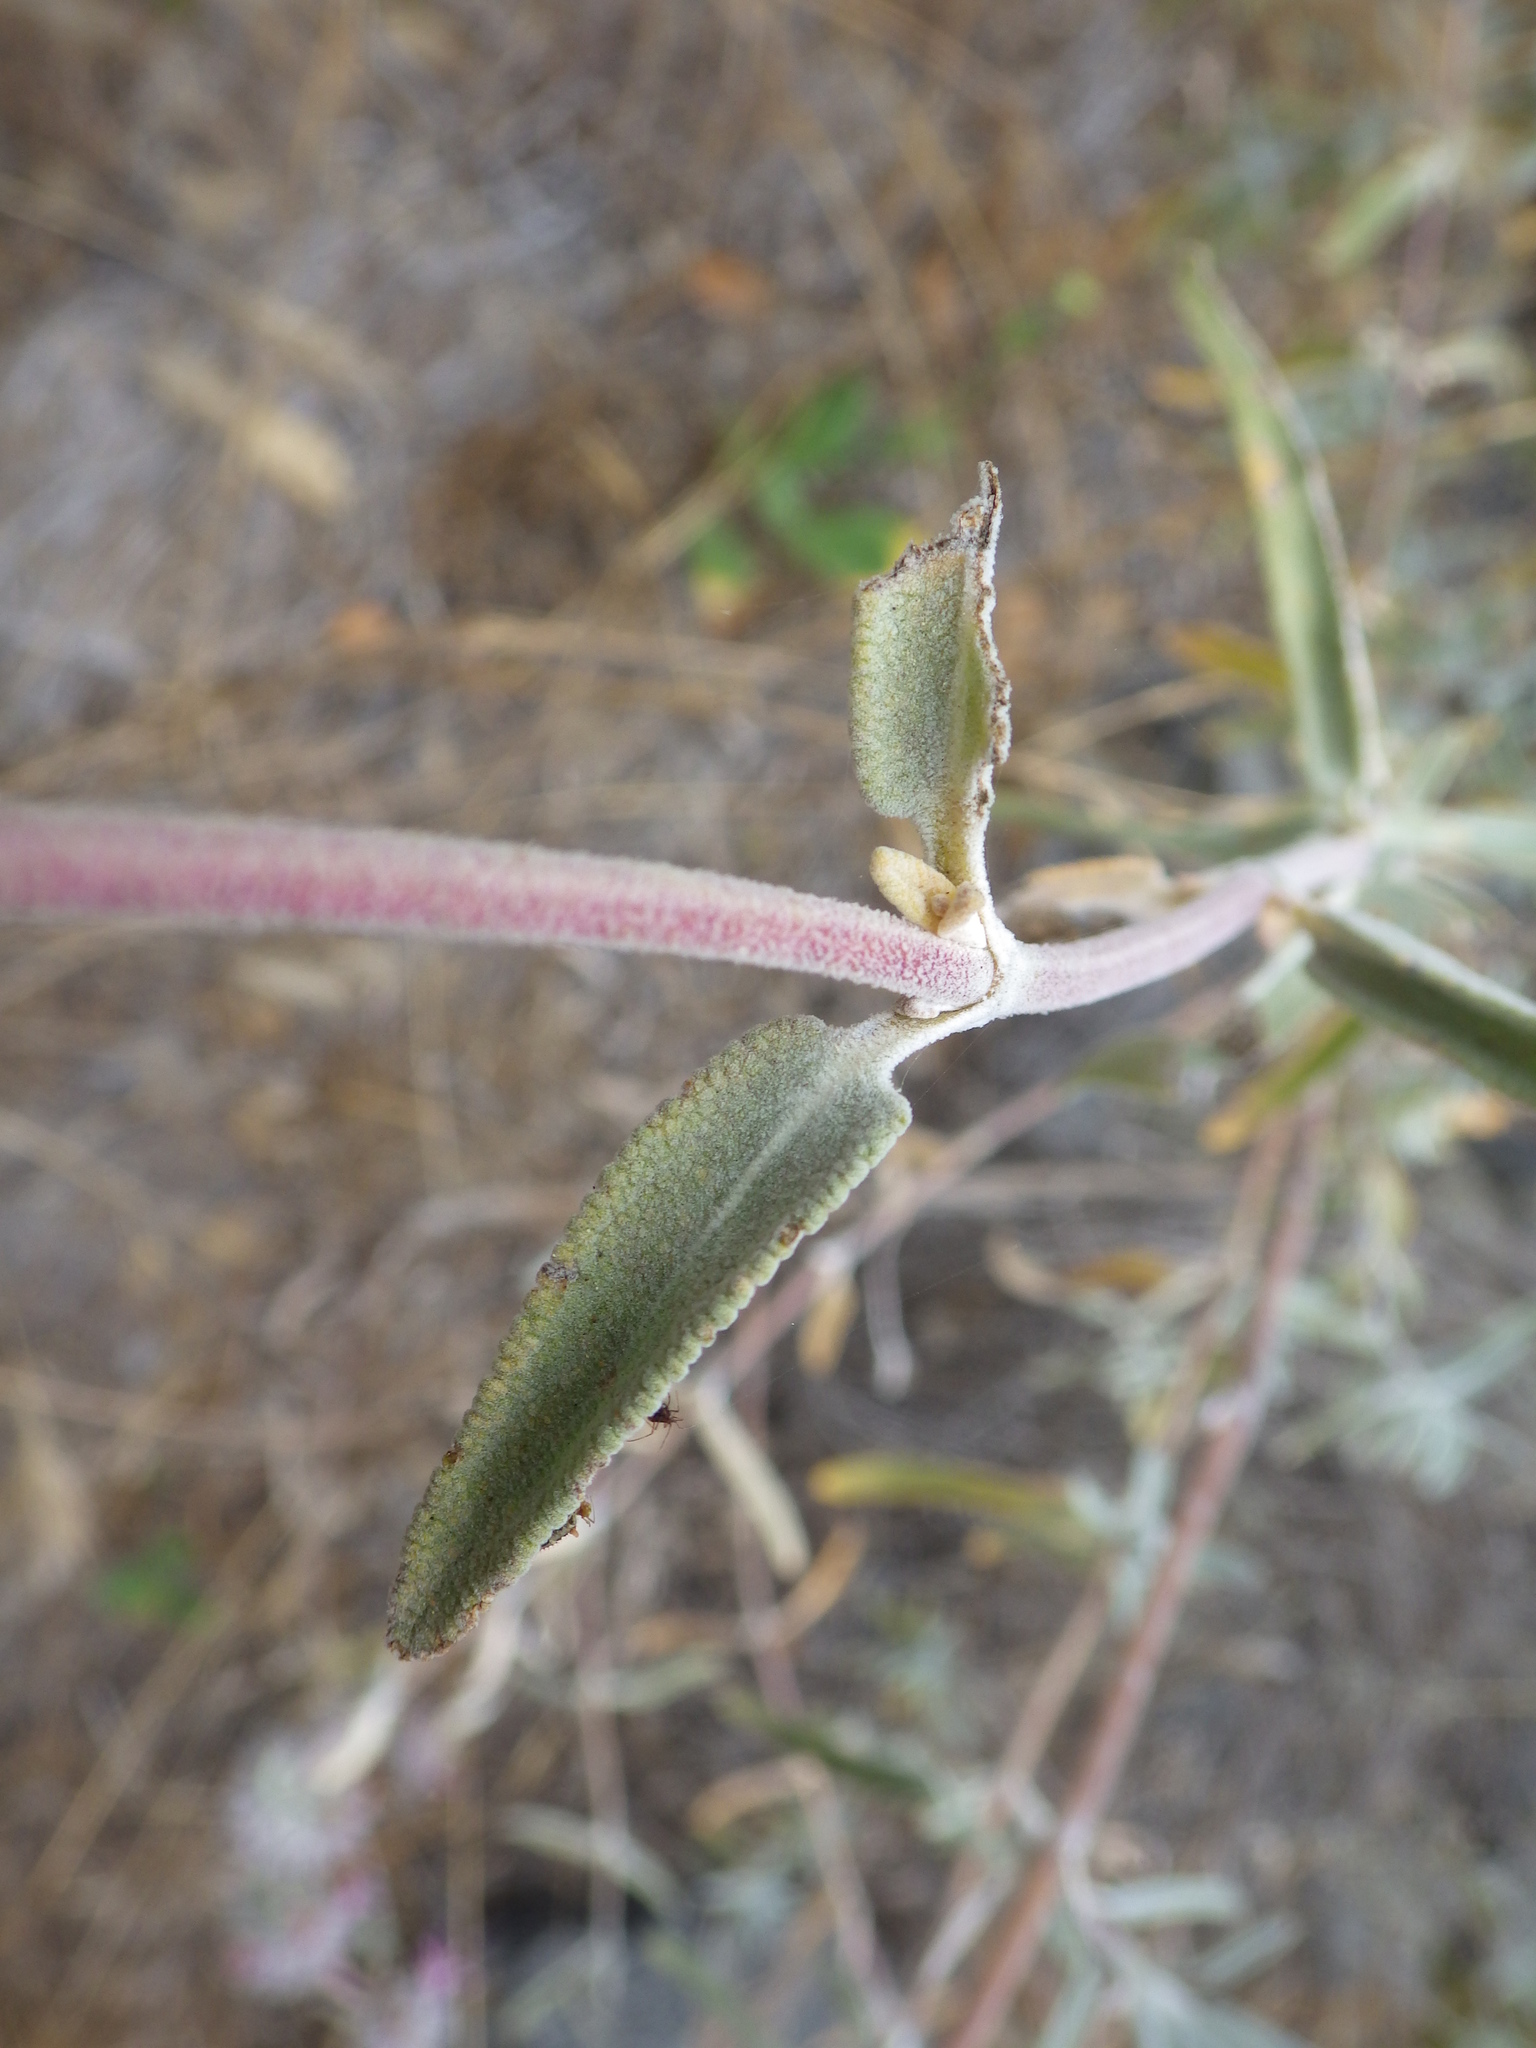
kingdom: Plantae
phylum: Tracheophyta
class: Magnoliopsida
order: Lamiales
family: Lamiaceae
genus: Salvia
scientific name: Salvia leucophylla
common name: Purple sage
